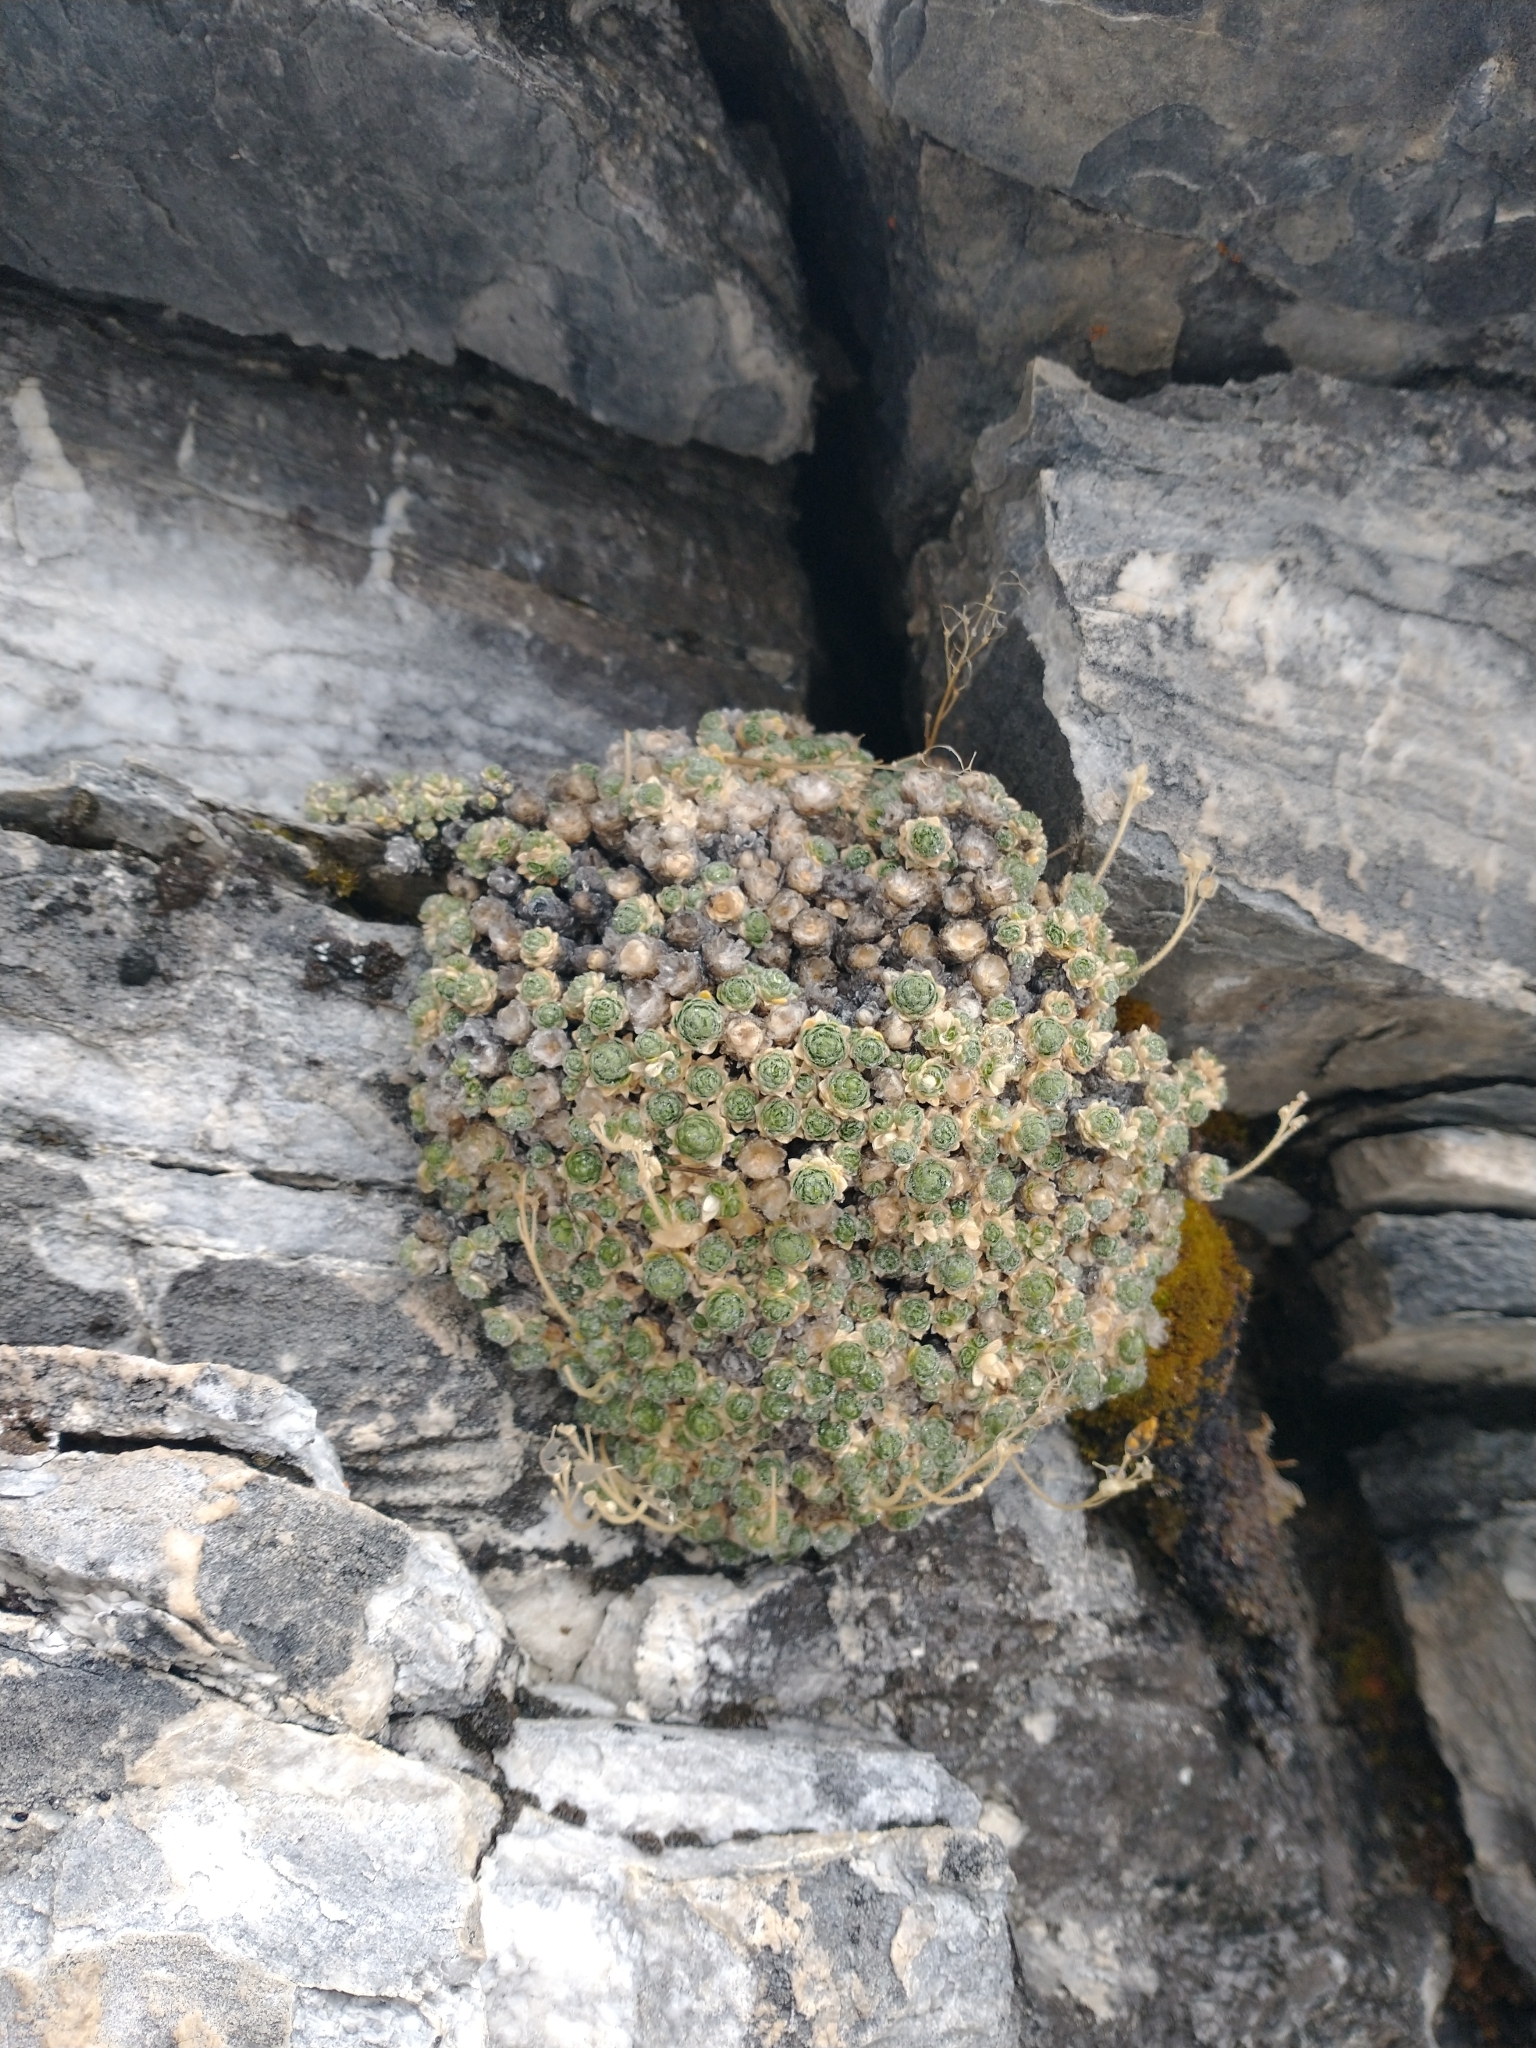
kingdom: Plantae
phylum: Tracheophyta
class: Magnoliopsida
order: Brassicales
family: Brassicaceae
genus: Draba
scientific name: Draba pterosperma
